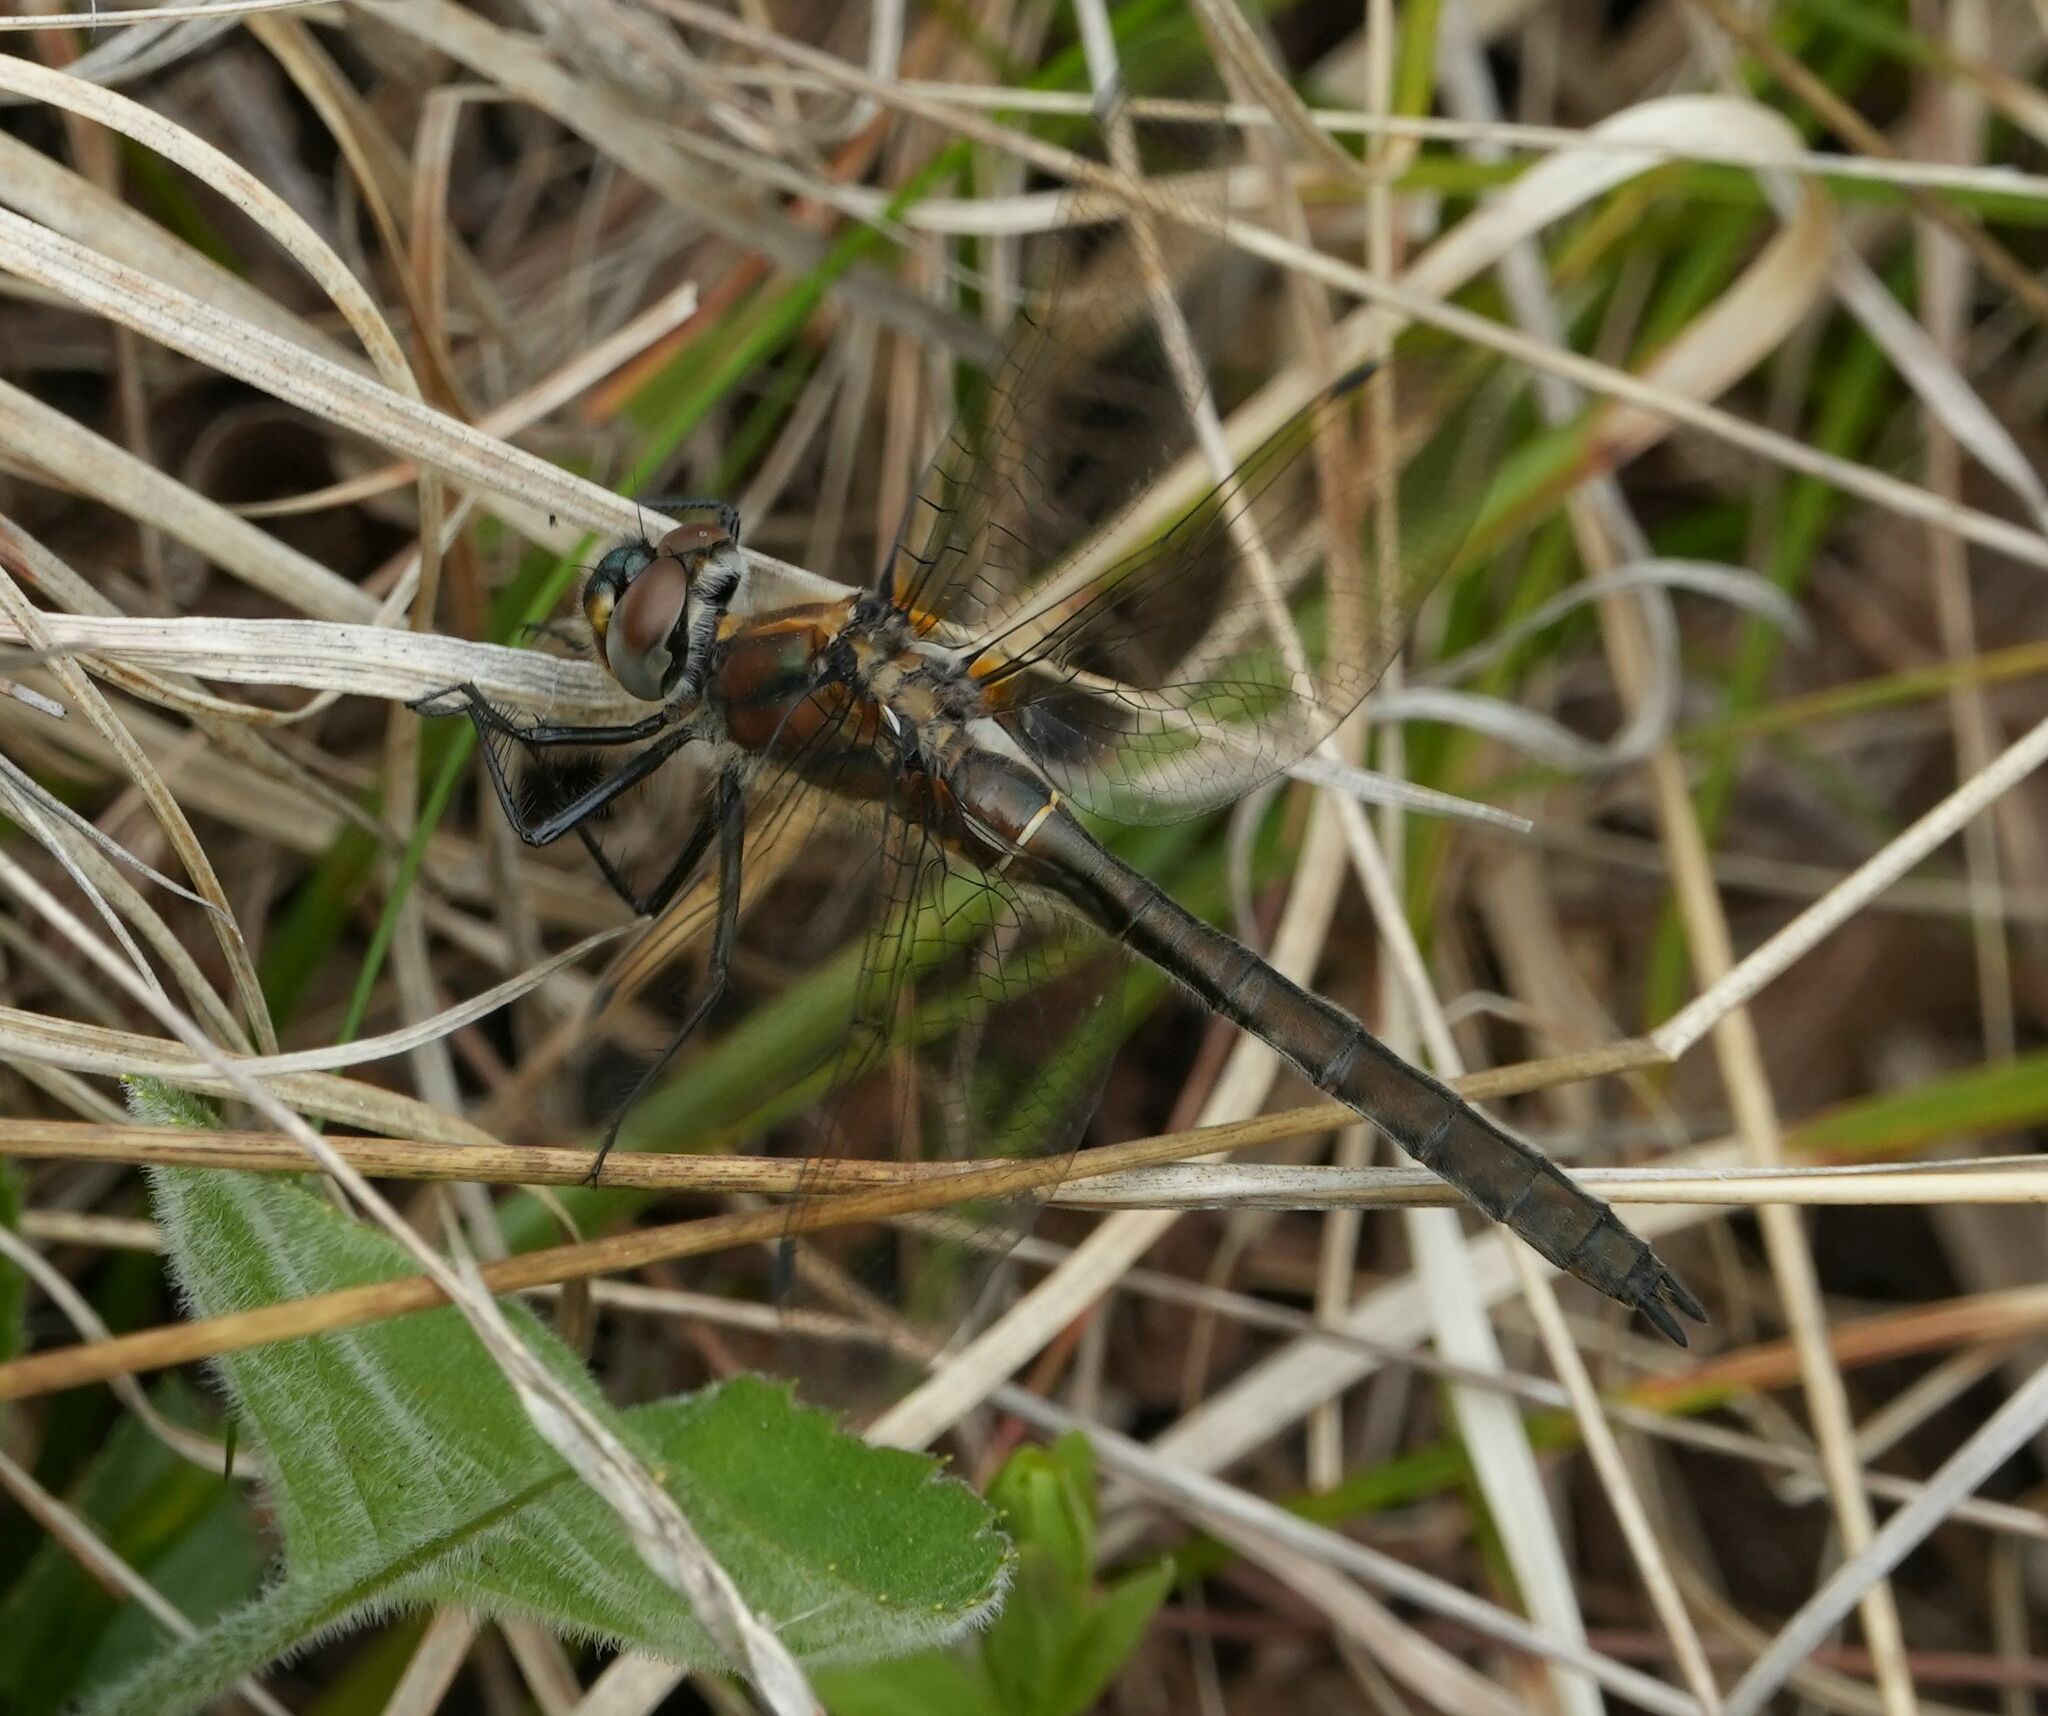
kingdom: Animalia
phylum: Arthropoda
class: Insecta
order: Odonata
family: Corduliidae
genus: Cordulia
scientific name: Cordulia shurtleffii
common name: American emerald
